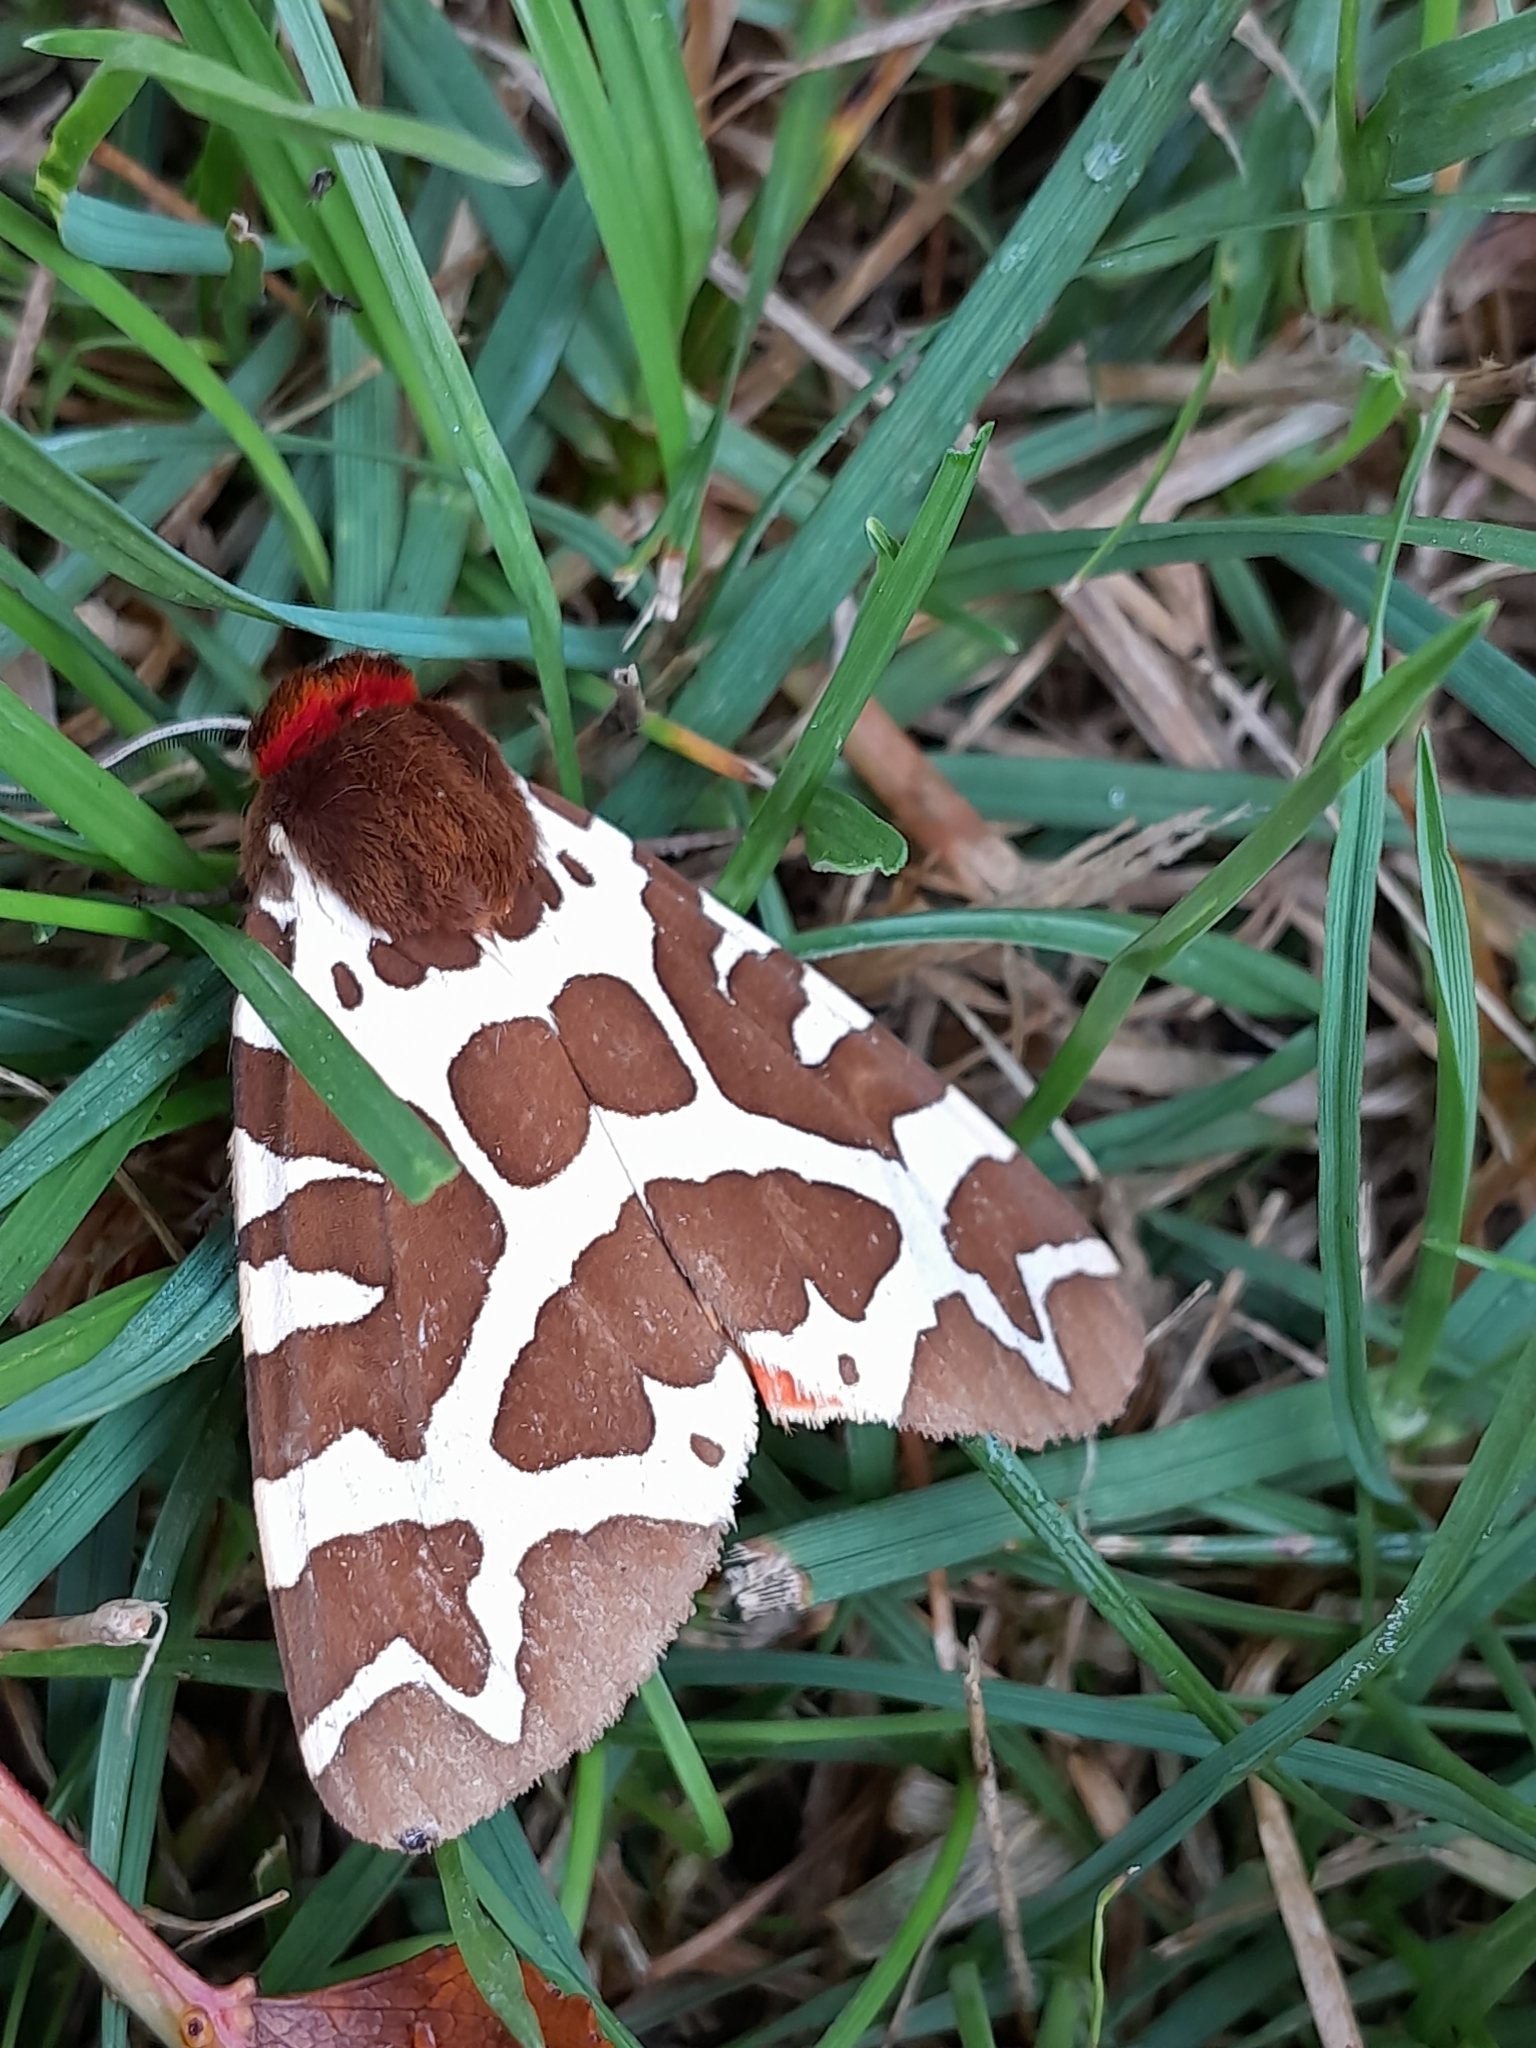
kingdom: Animalia
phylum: Arthropoda
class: Insecta
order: Lepidoptera
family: Erebidae
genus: Arctia
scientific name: Arctia caja
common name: Garden tiger
